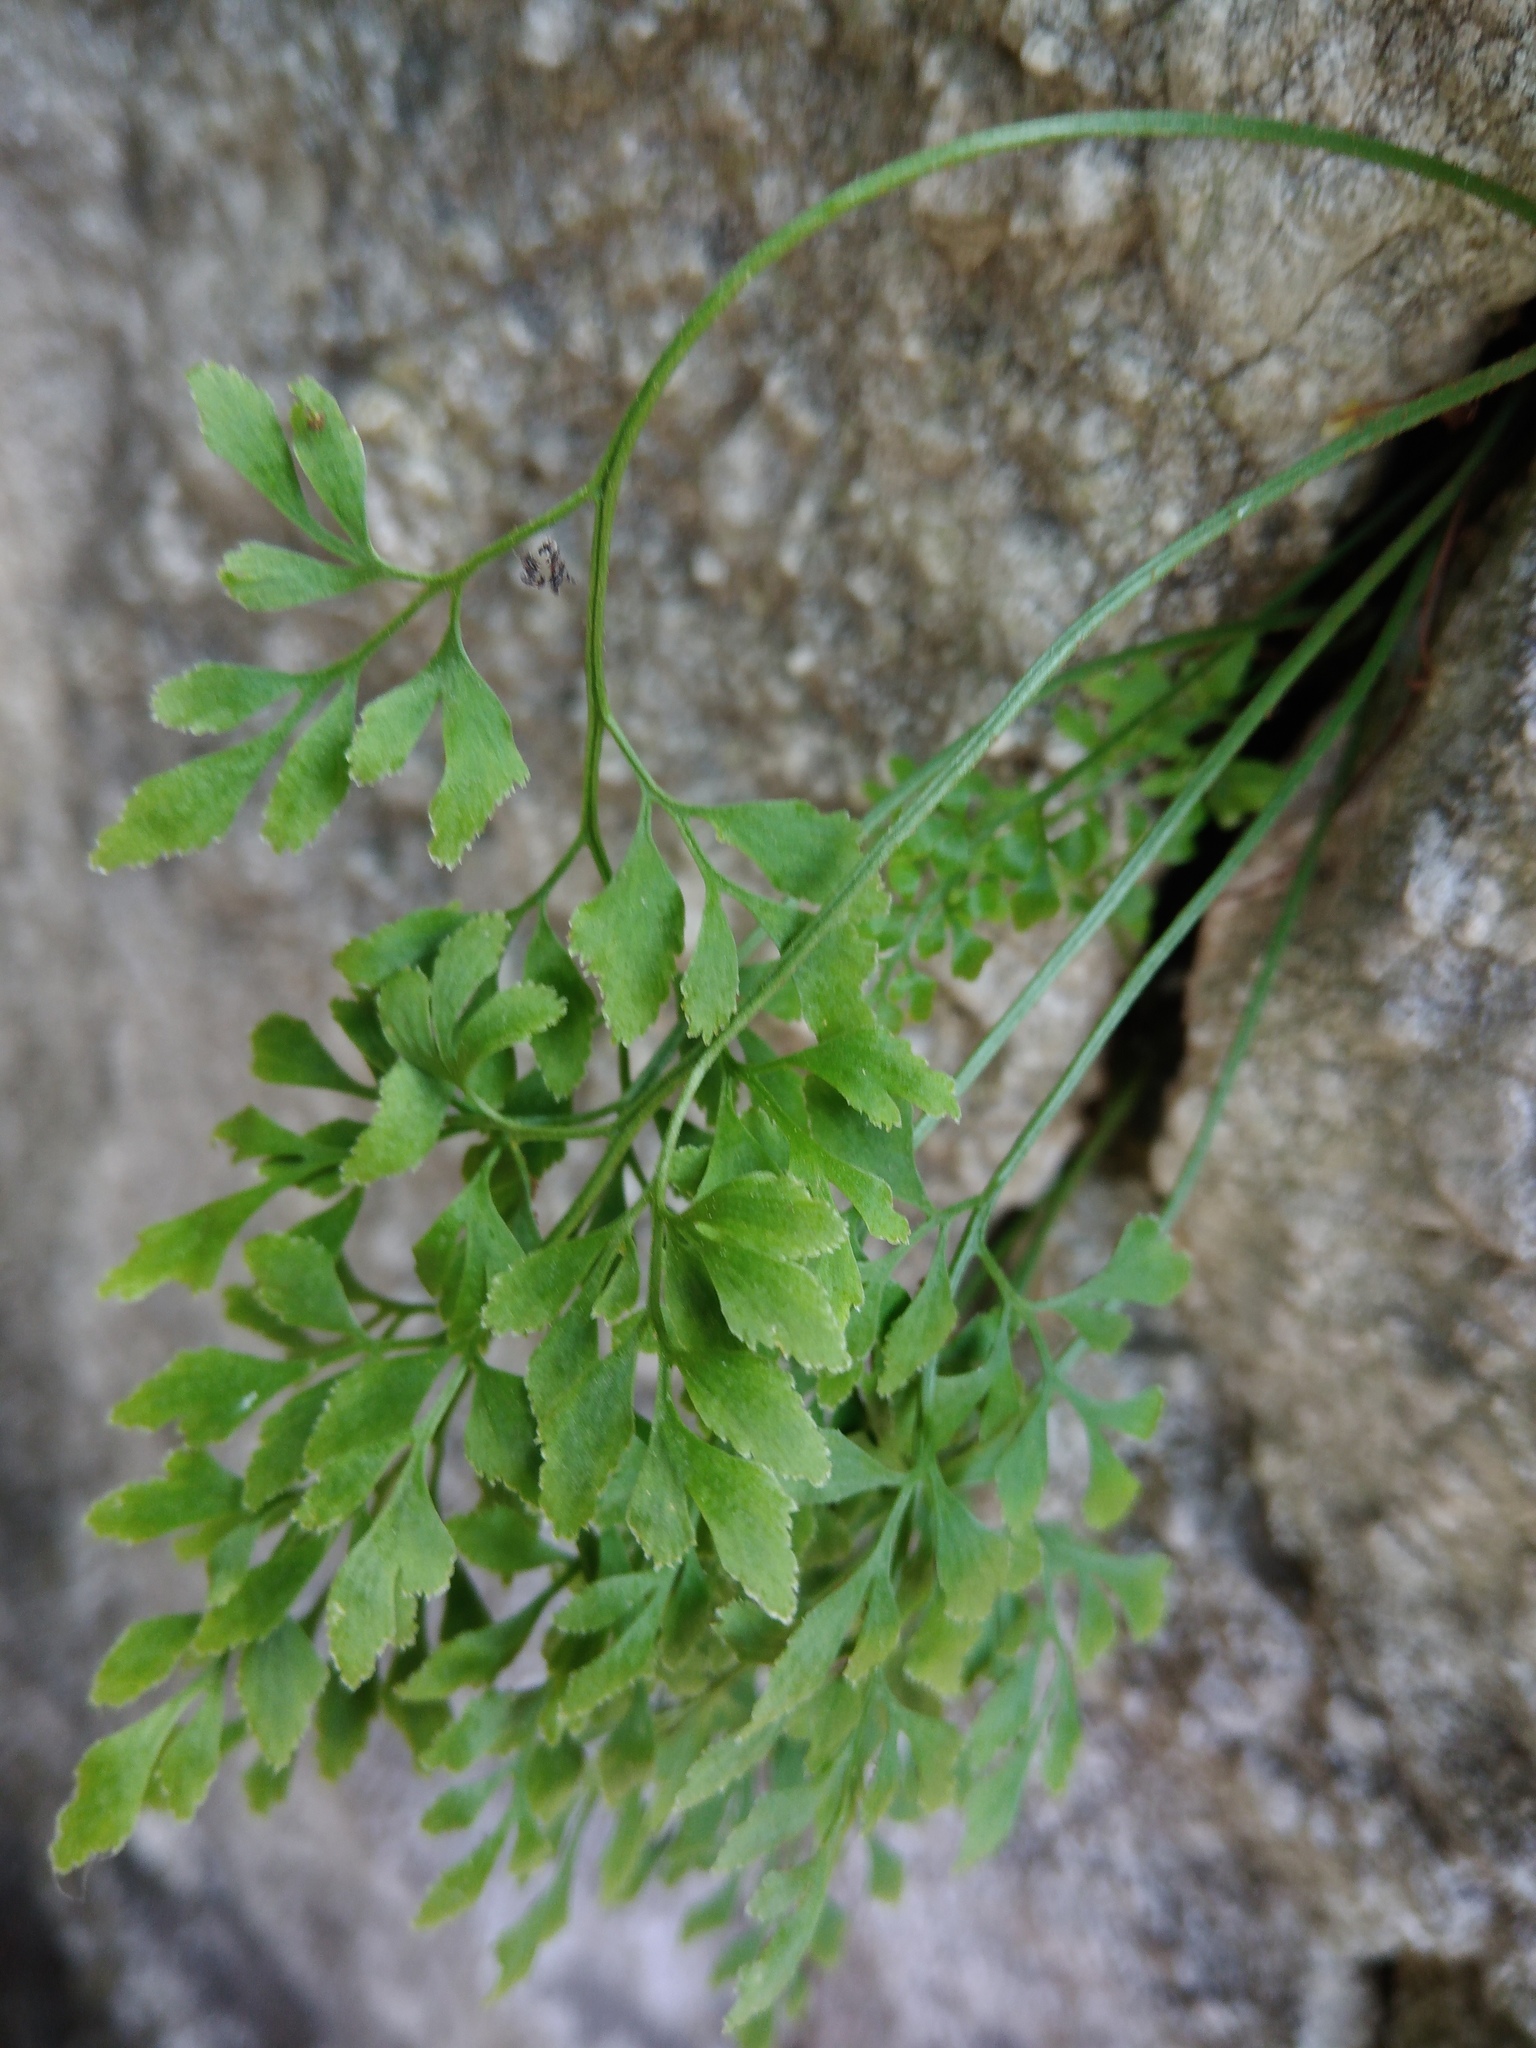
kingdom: Plantae
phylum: Tracheophyta
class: Polypodiopsida
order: Polypodiales
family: Aspleniaceae
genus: Asplenium
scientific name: Asplenium ruta-muraria
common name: Wall-rue
